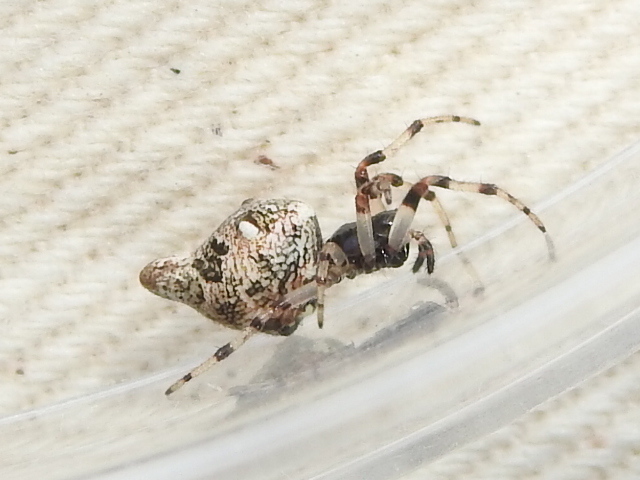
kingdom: Animalia
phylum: Arthropoda
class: Arachnida
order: Araneae
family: Araneidae
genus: Cyclosa
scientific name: Cyclosa turbinata
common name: Orb weavers
